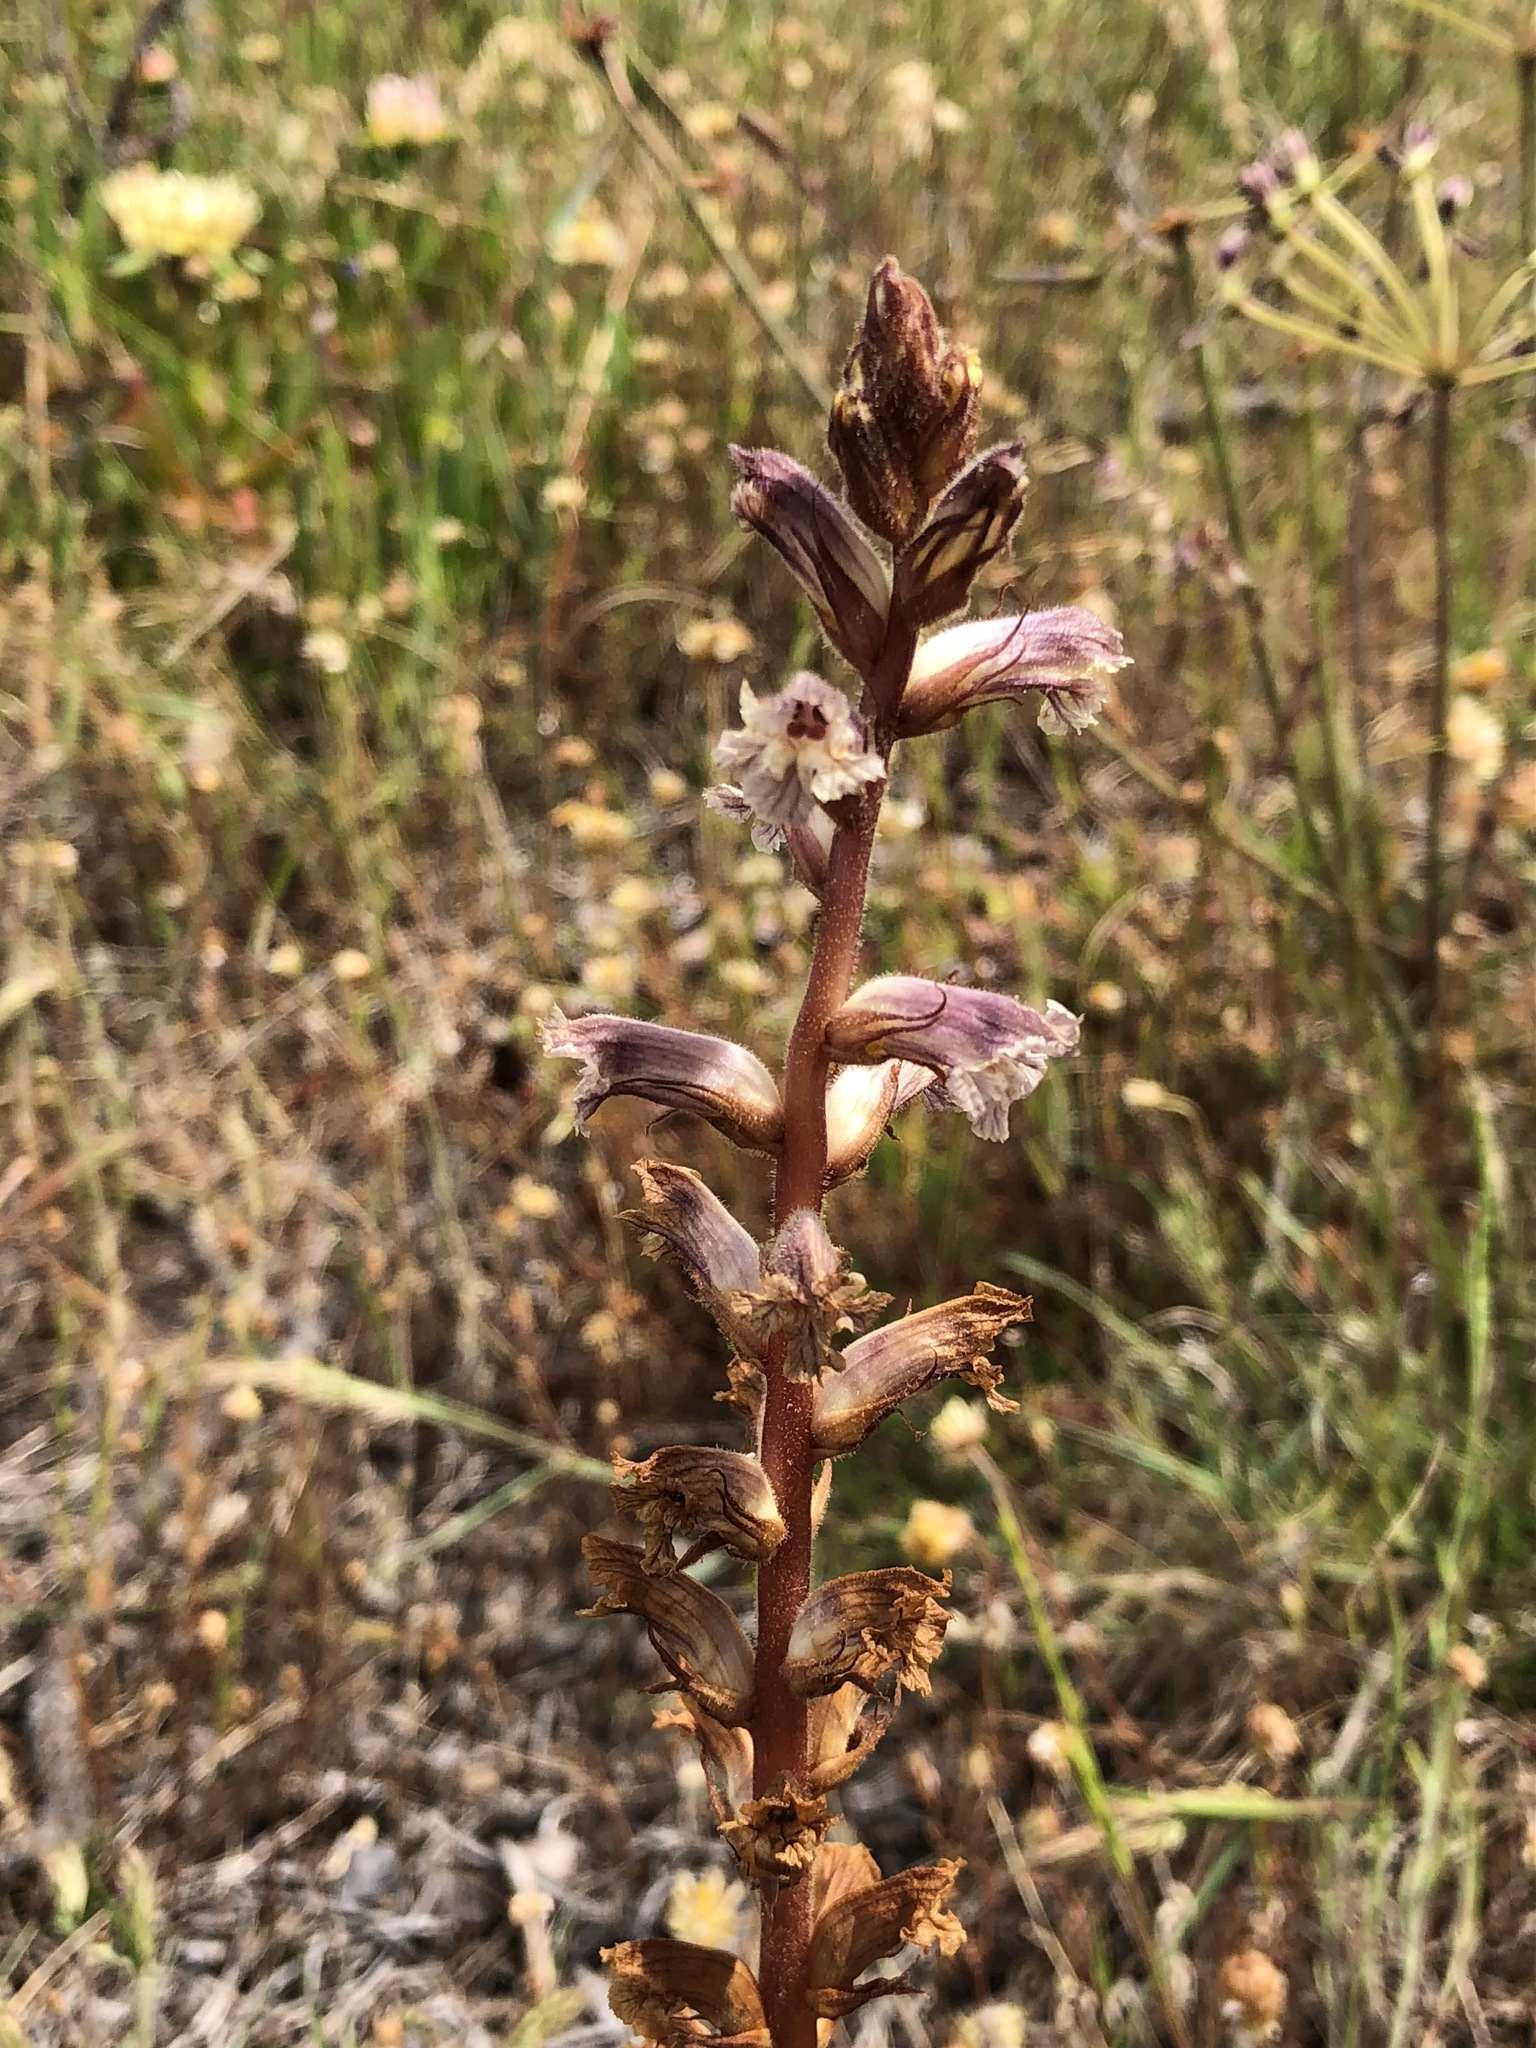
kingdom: Plantae
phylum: Tracheophyta
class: Magnoliopsida
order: Lamiales
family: Orobanchaceae
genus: Orobanche
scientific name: Orobanche minor
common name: Common broomrape
